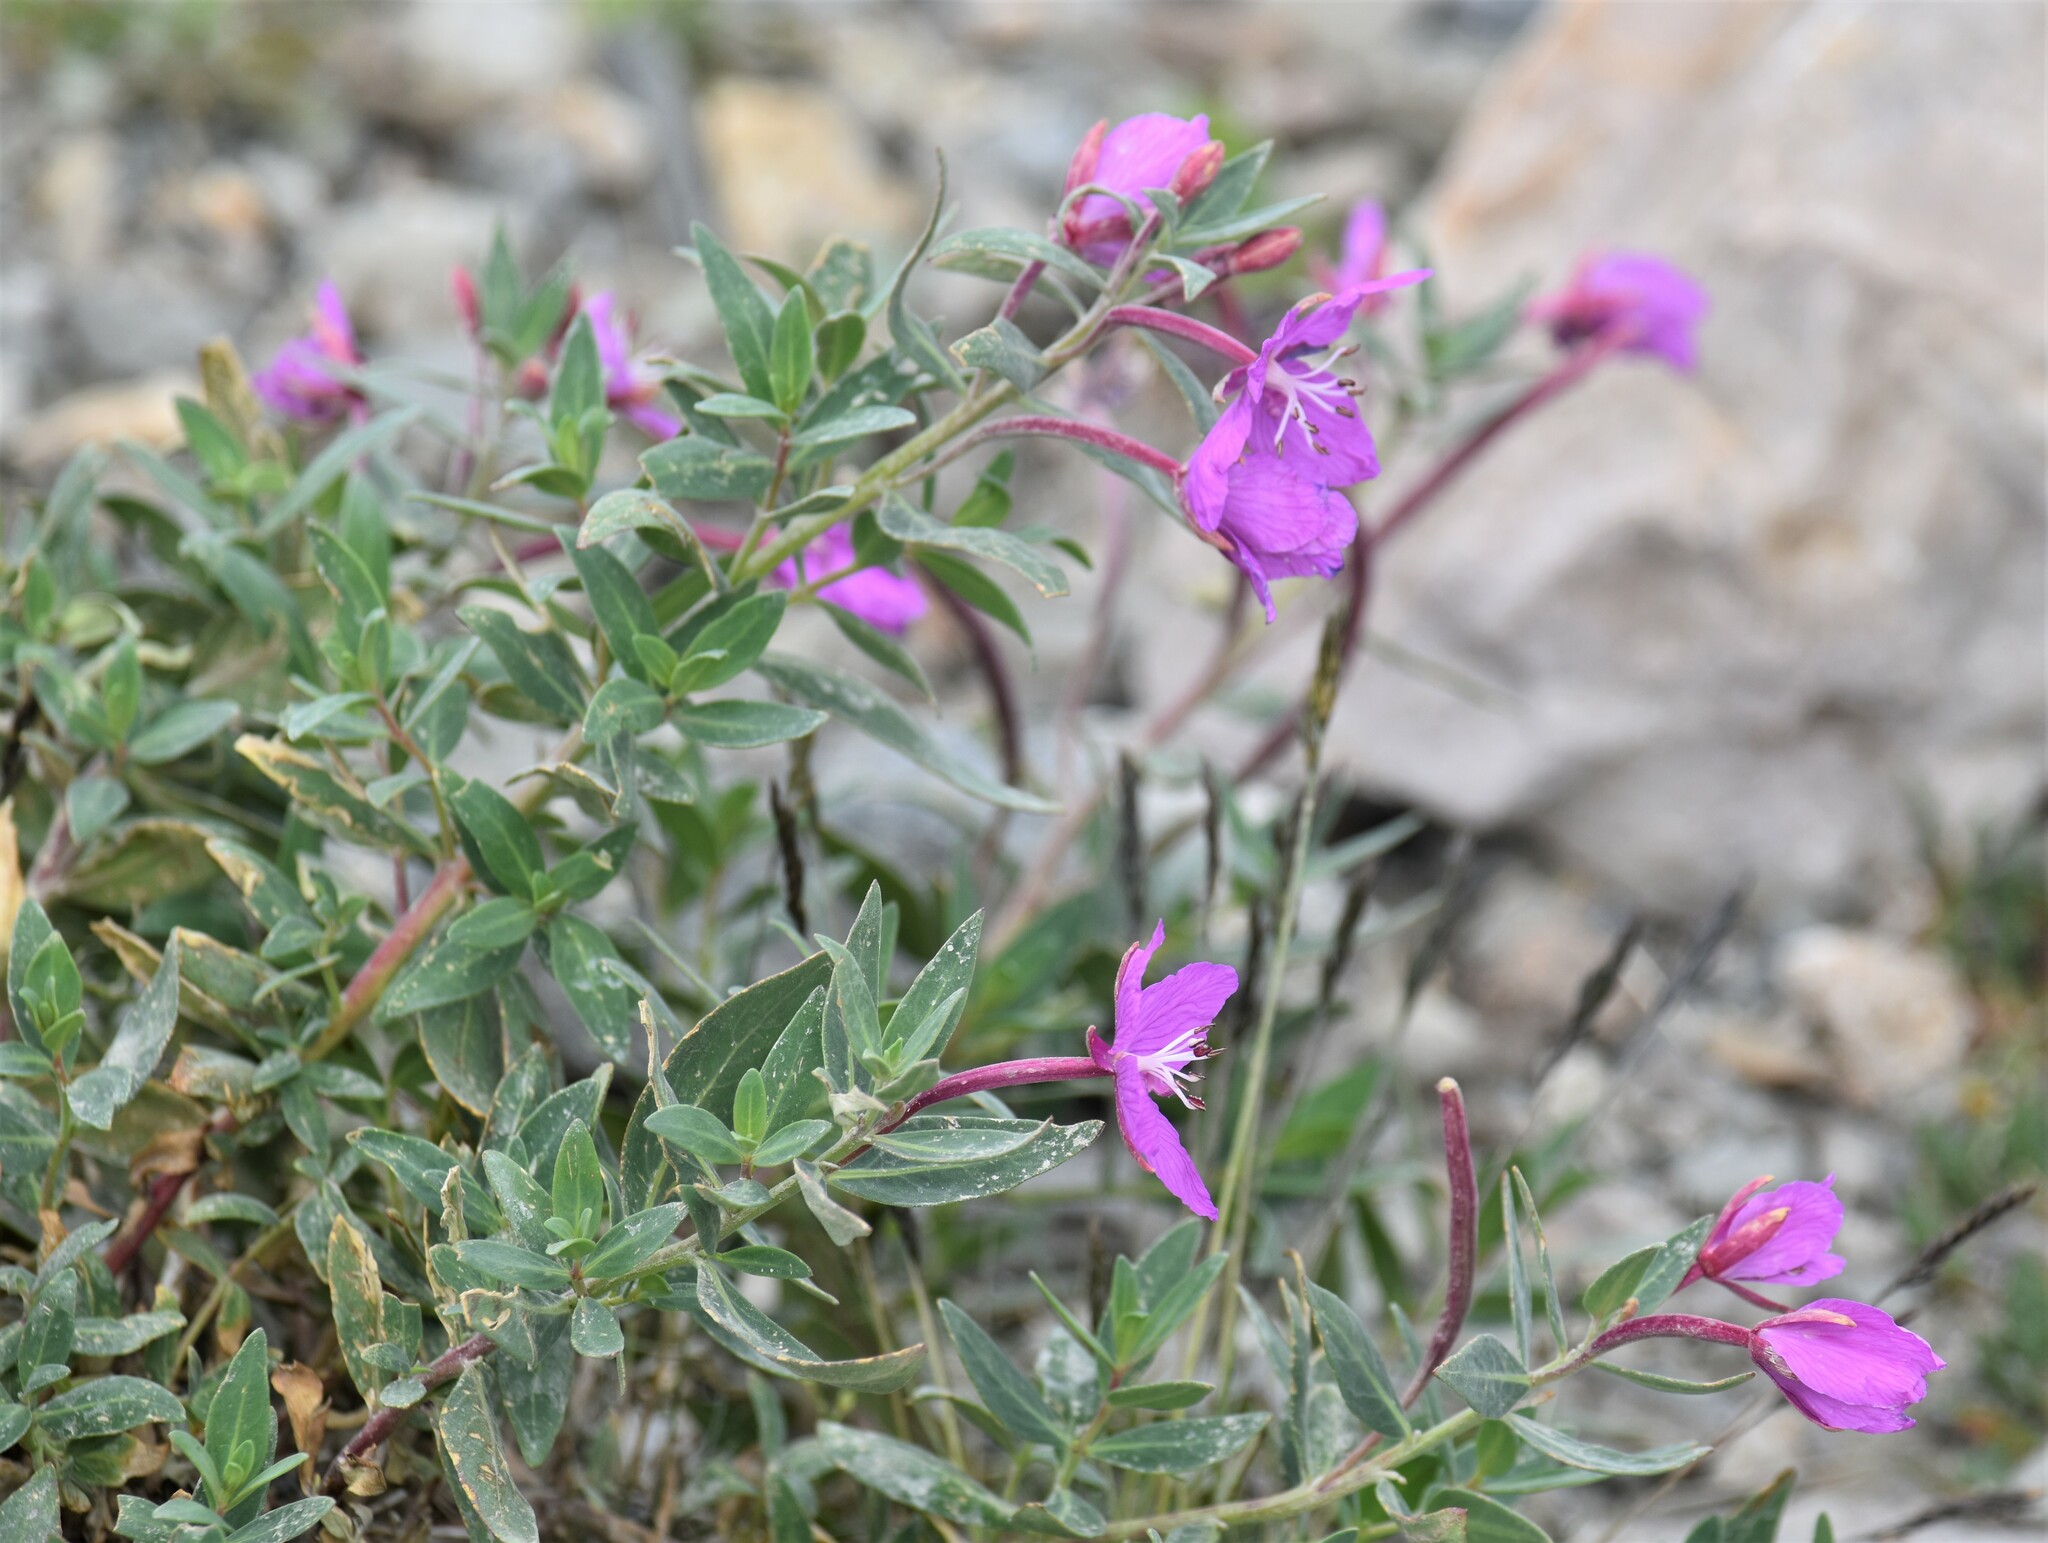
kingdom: Plantae
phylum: Tracheophyta
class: Magnoliopsida
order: Myrtales
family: Onagraceae
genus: Chamaenerion
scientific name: Chamaenerion latifolium
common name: Dwarf fireweed
